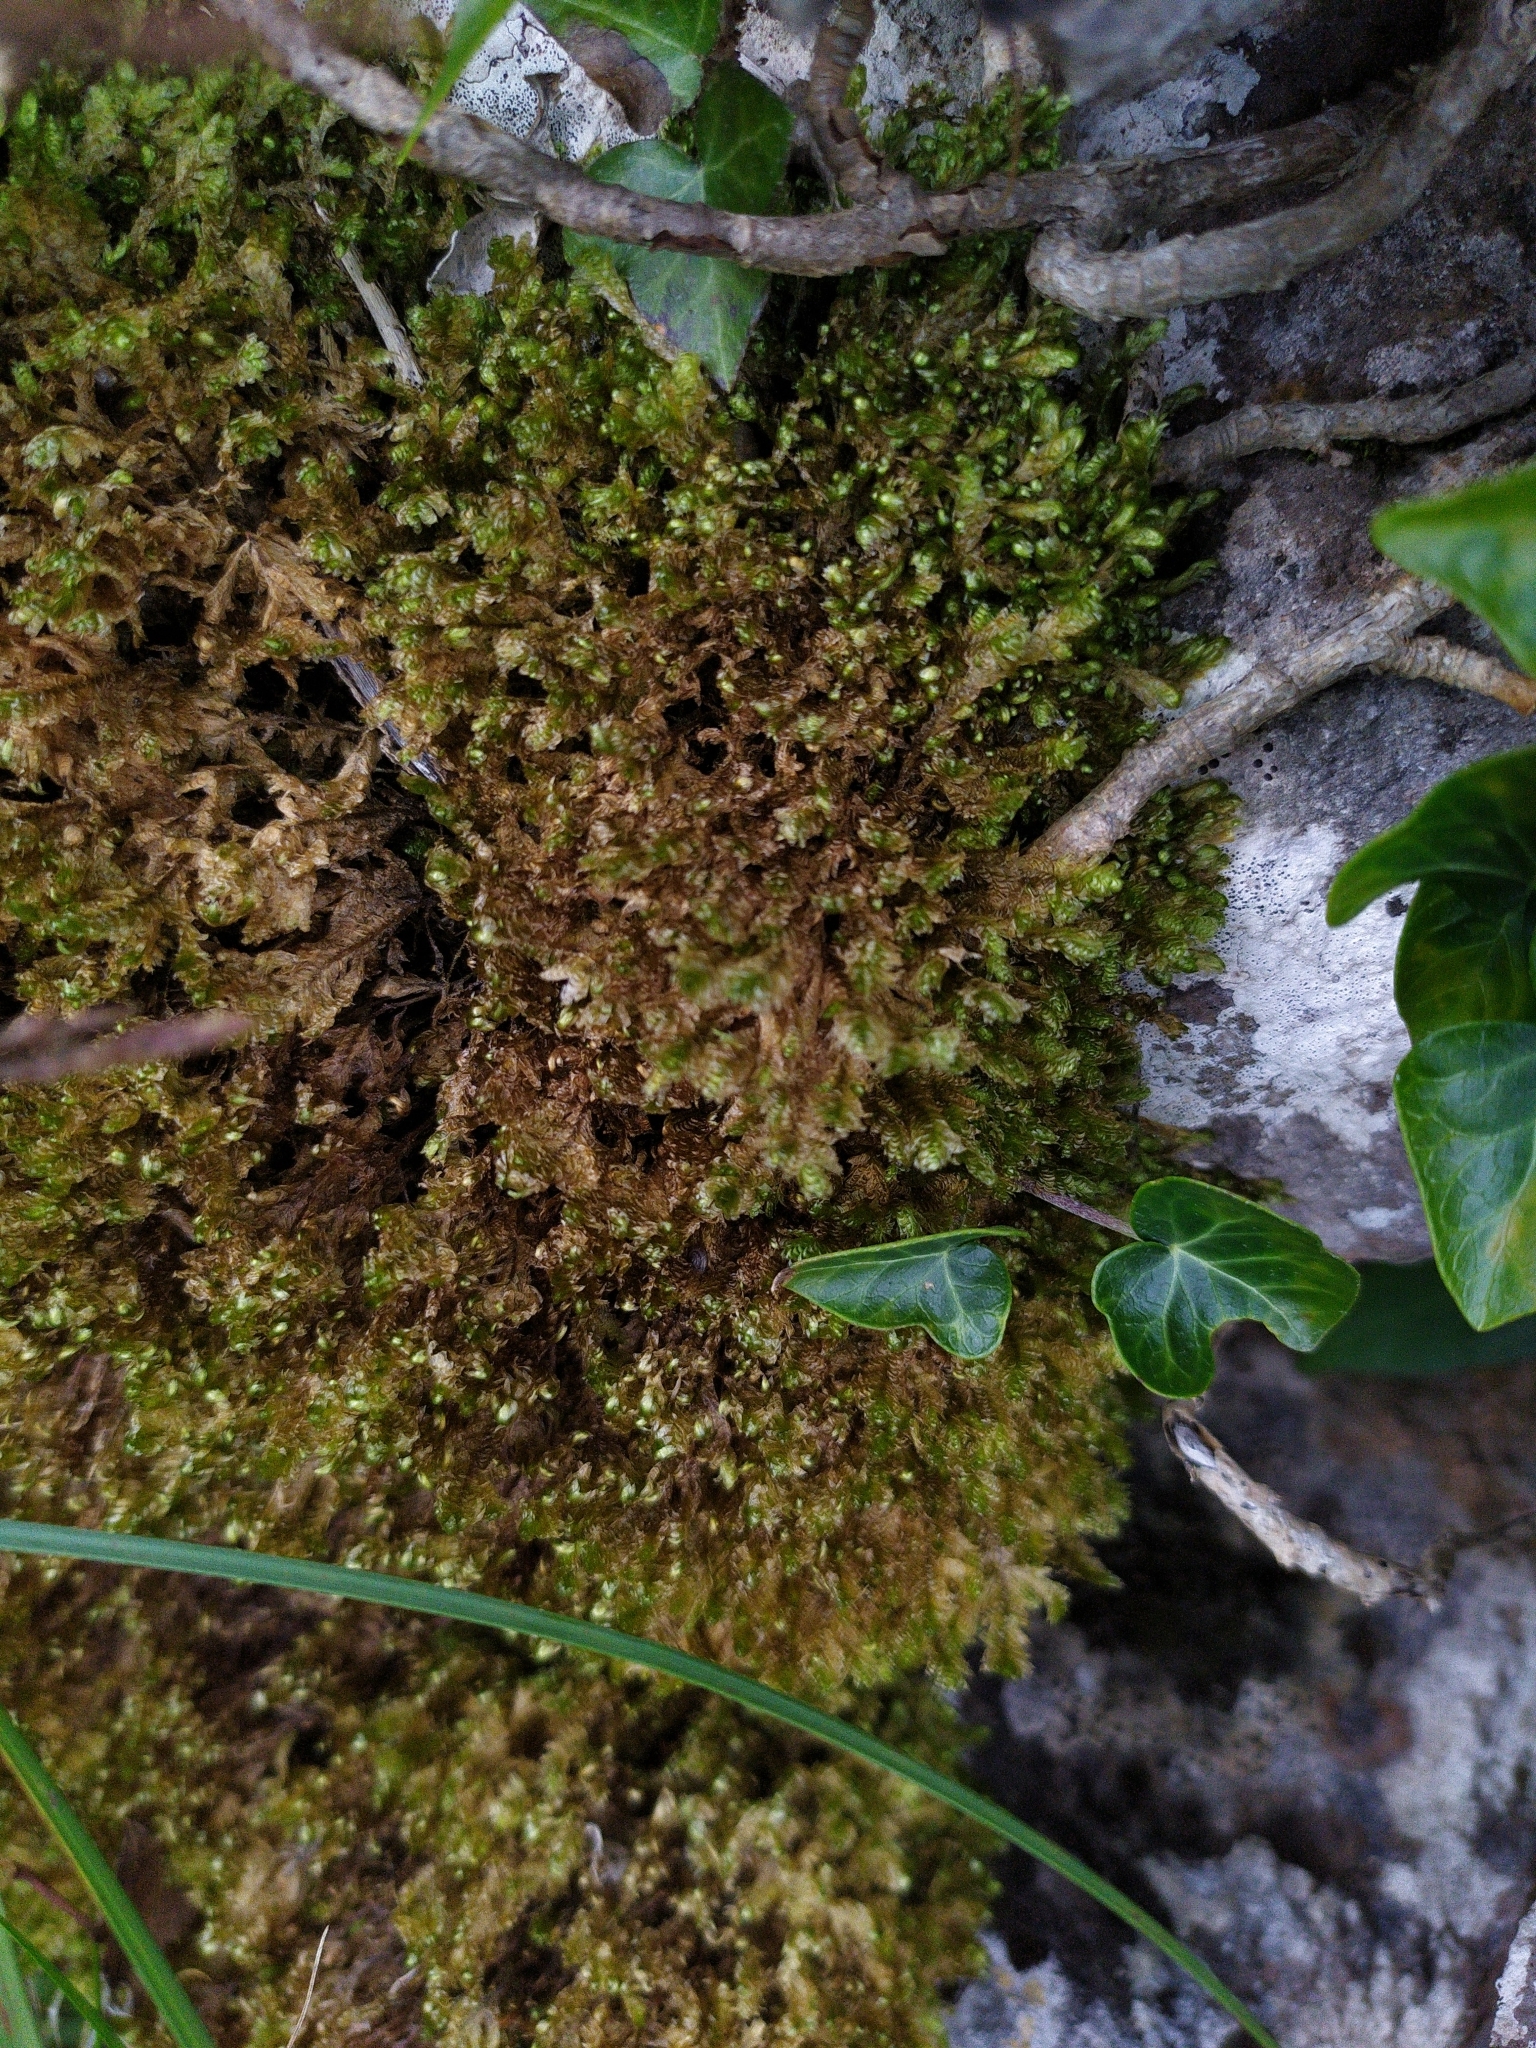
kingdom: Plantae
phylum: Bryophyta
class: Bryopsida
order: Hypnales
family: Neckeraceae
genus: Exsertotheca
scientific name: Exsertotheca crispa
